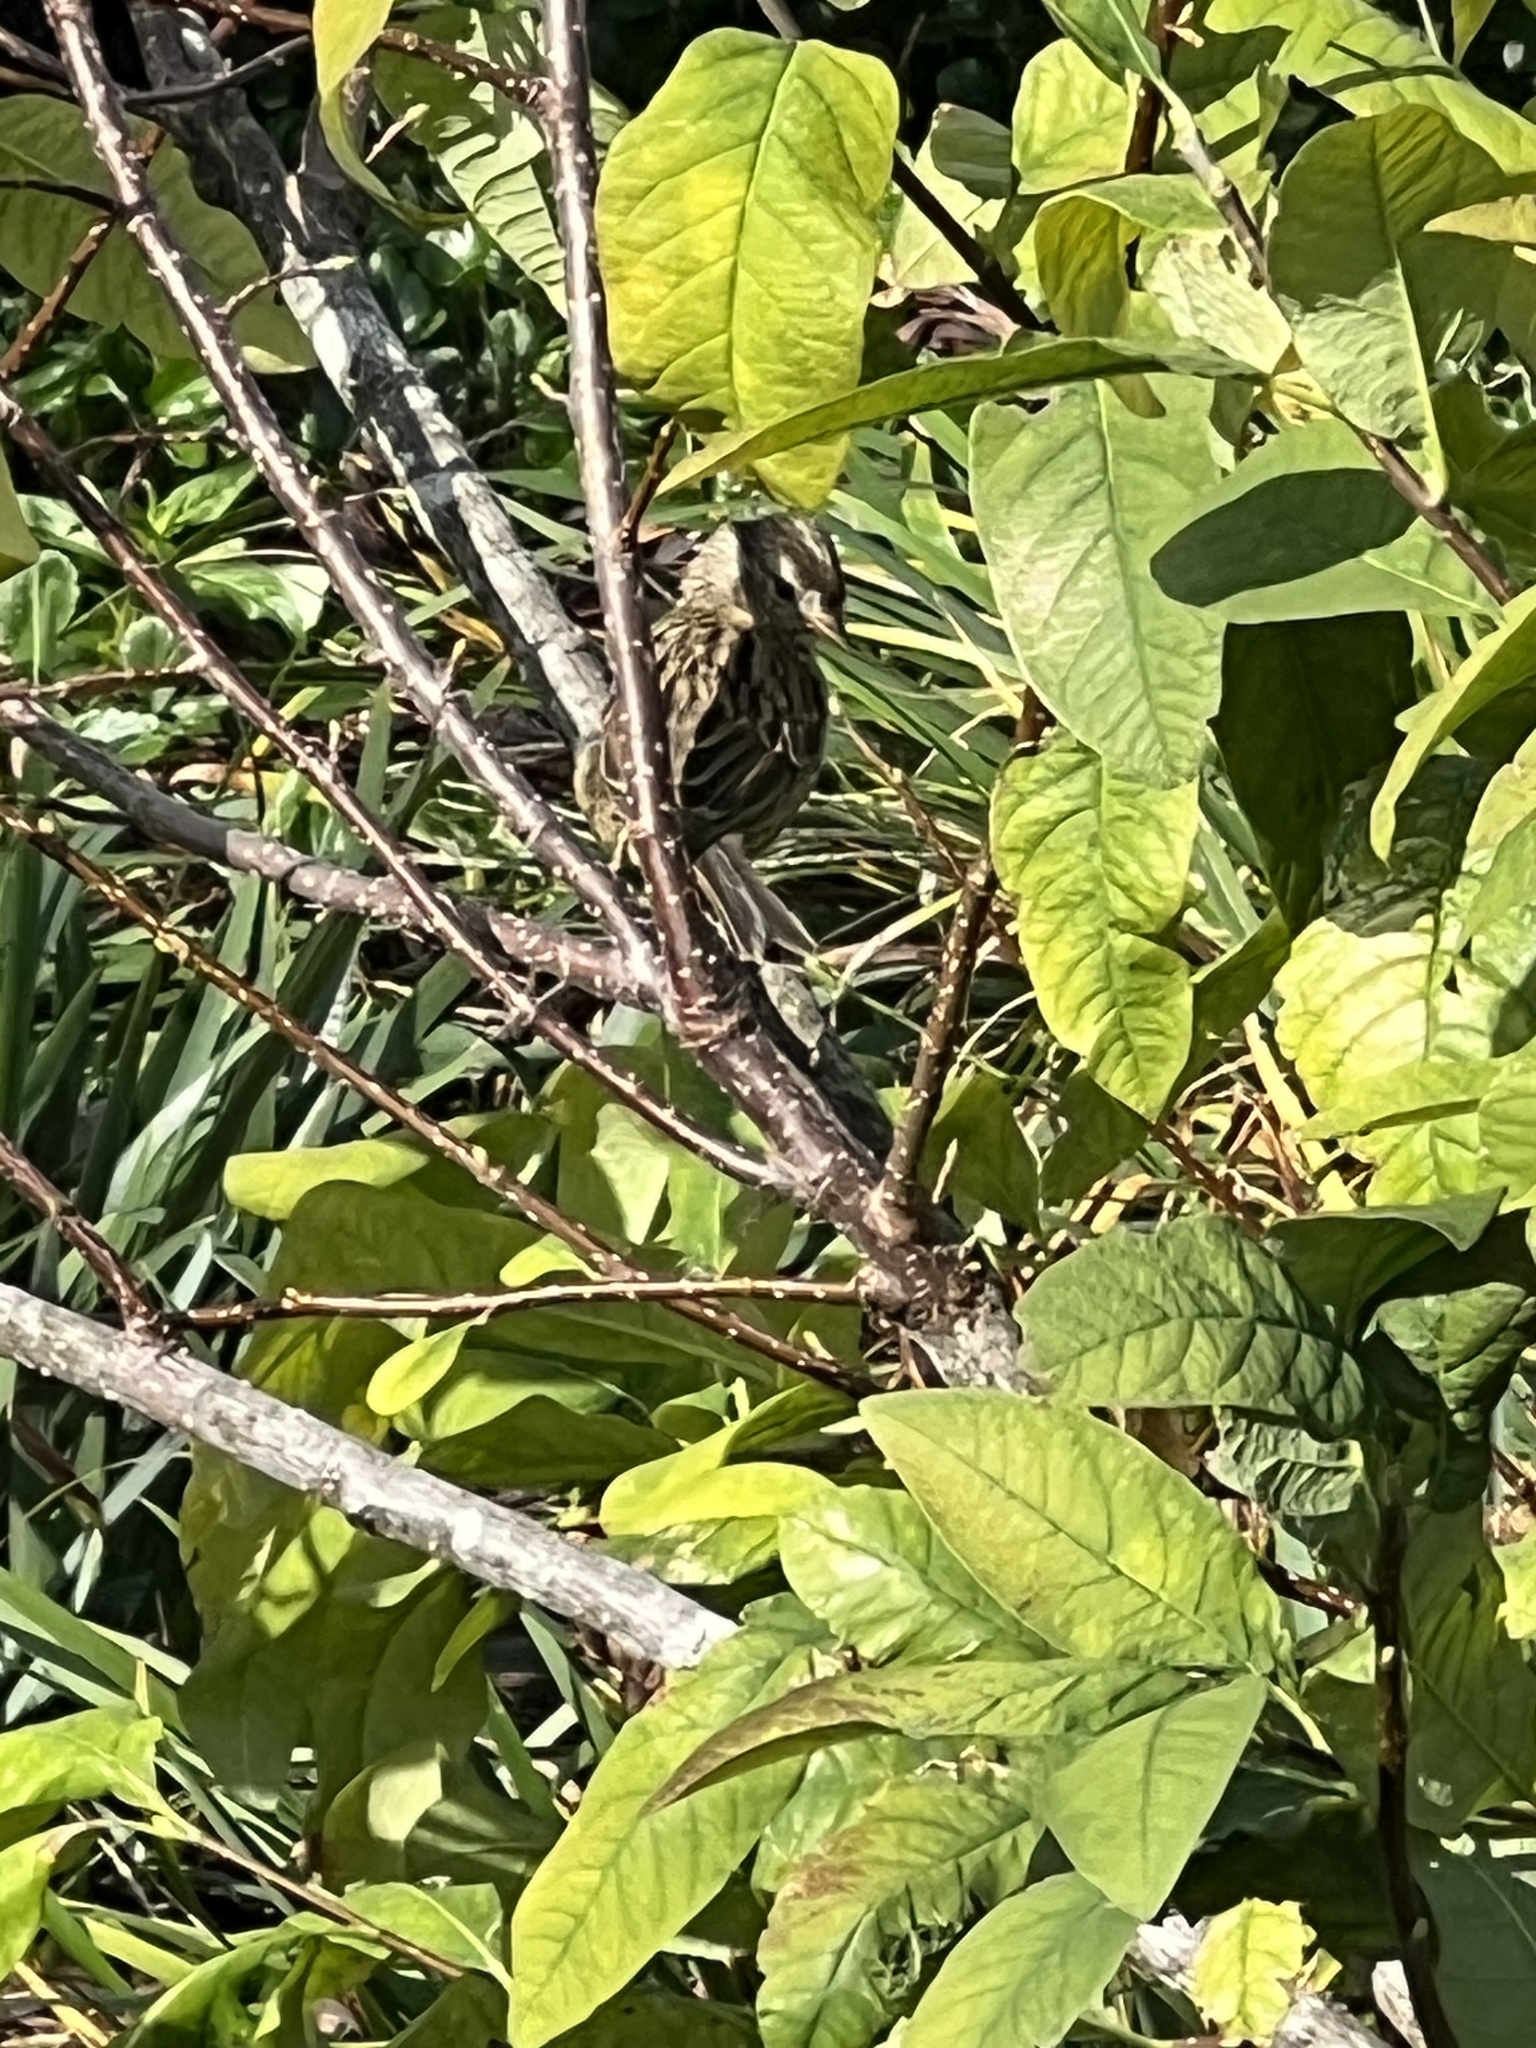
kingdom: Animalia
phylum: Chordata
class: Aves
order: Passeriformes
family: Passerellidae
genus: Zonotrichia
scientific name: Zonotrichia leucophrys
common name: White-crowned sparrow
